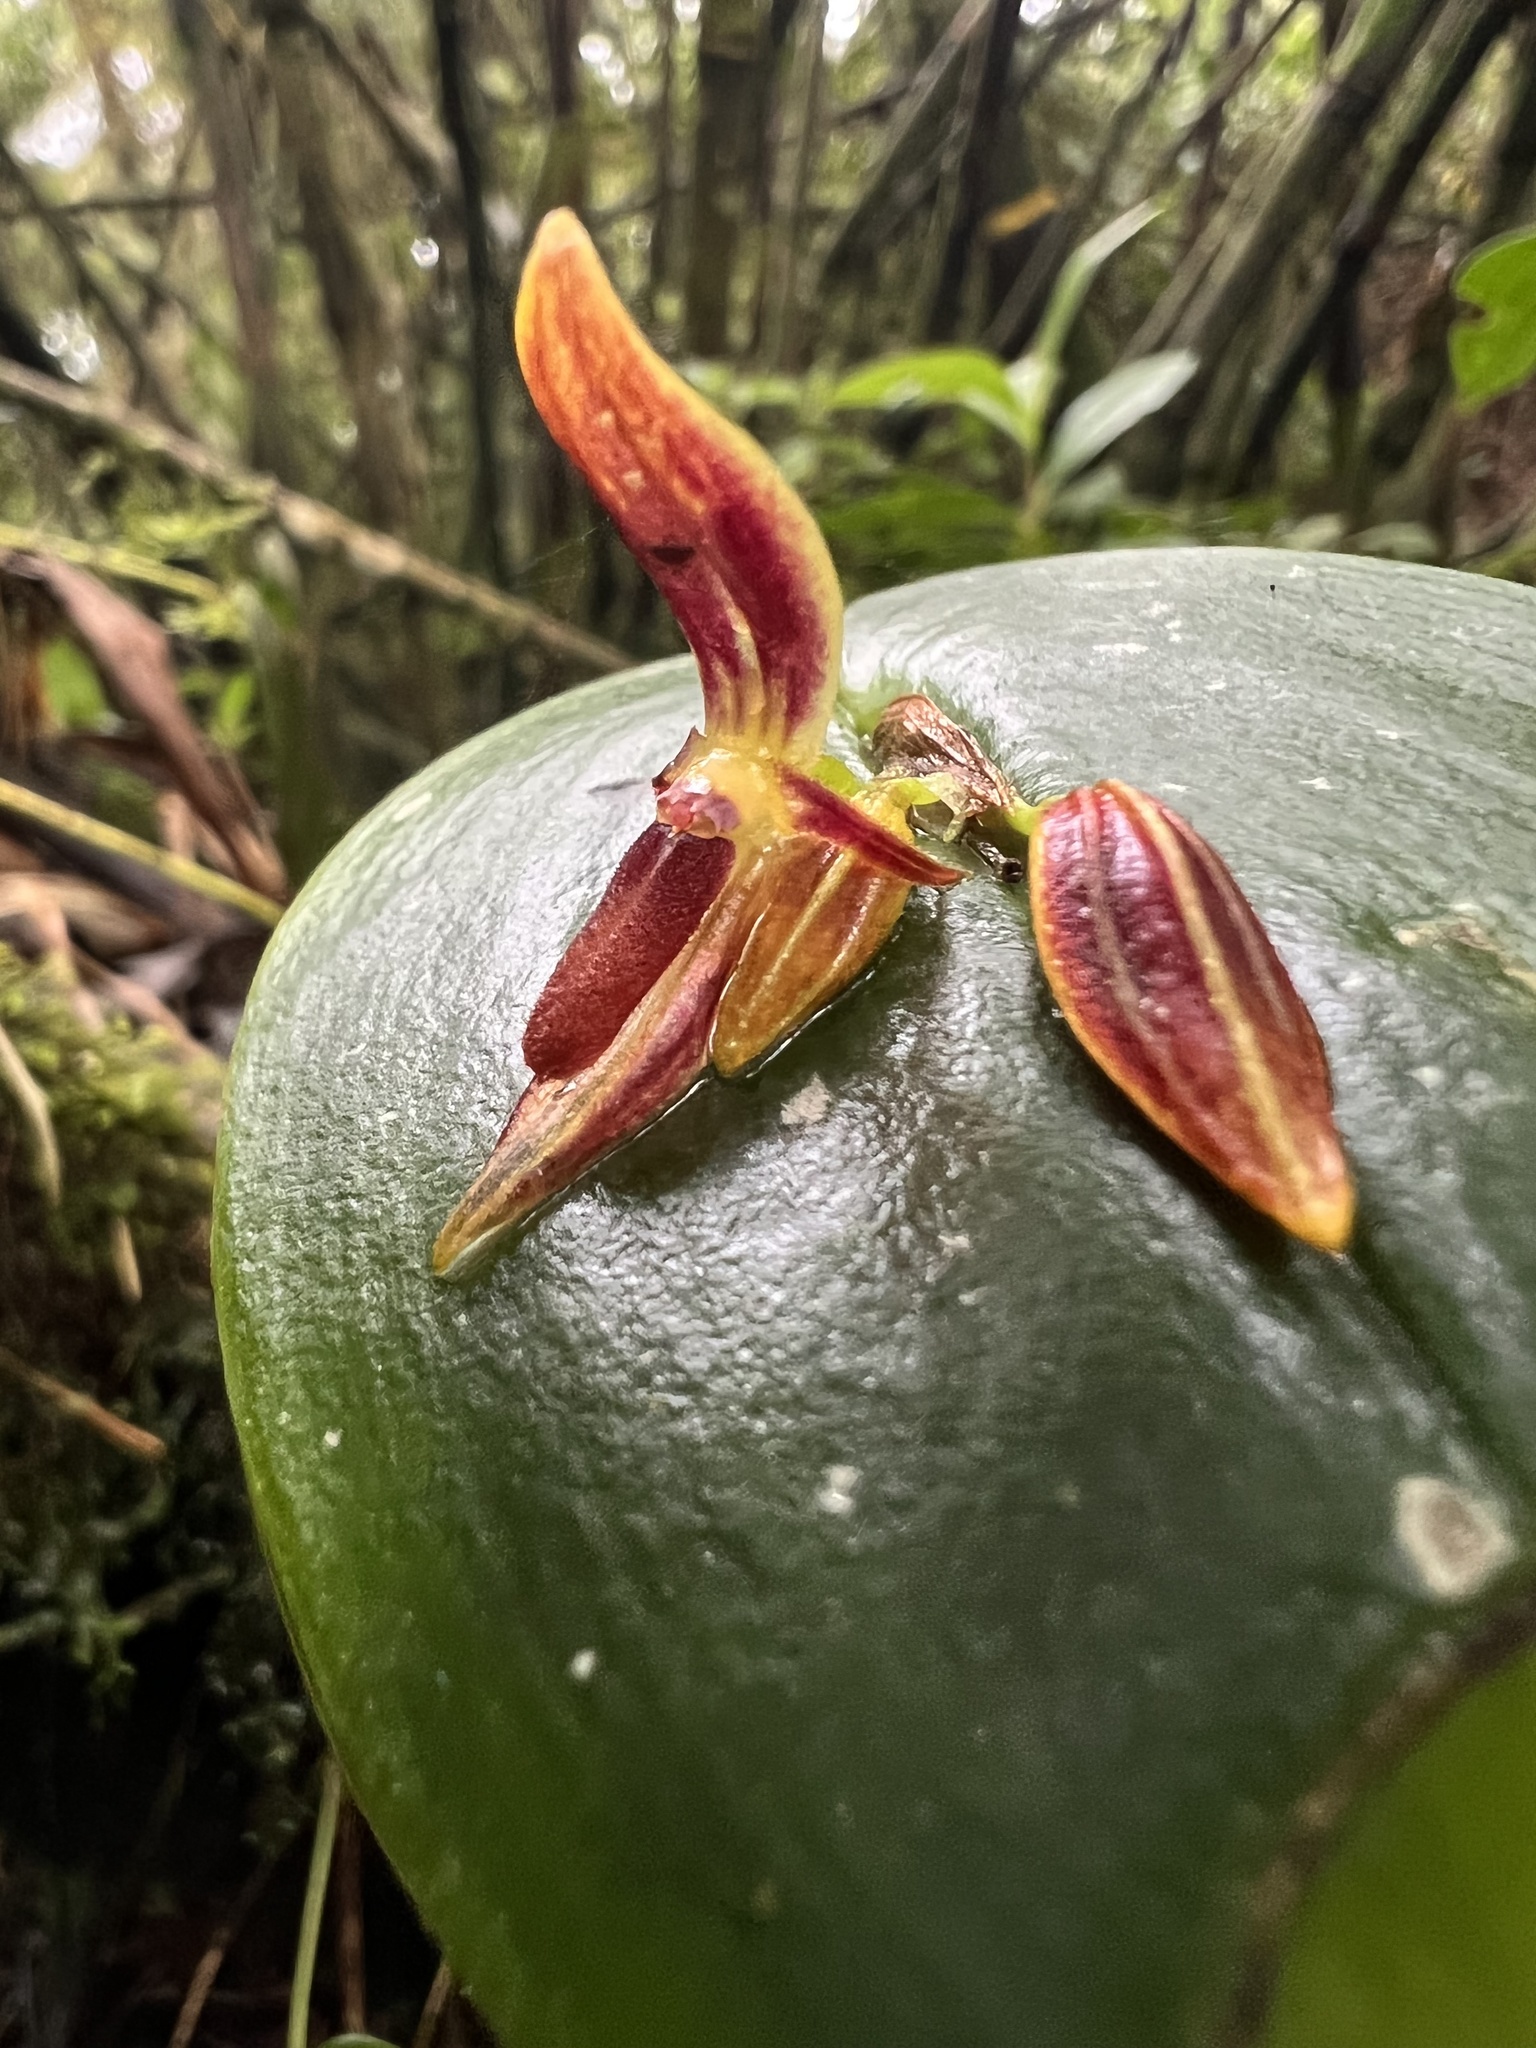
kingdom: Plantae
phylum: Tracheophyta
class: Liliopsida
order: Asparagales
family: Orchidaceae
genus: Pleurothallis
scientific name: Pleurothallis coriacardia
